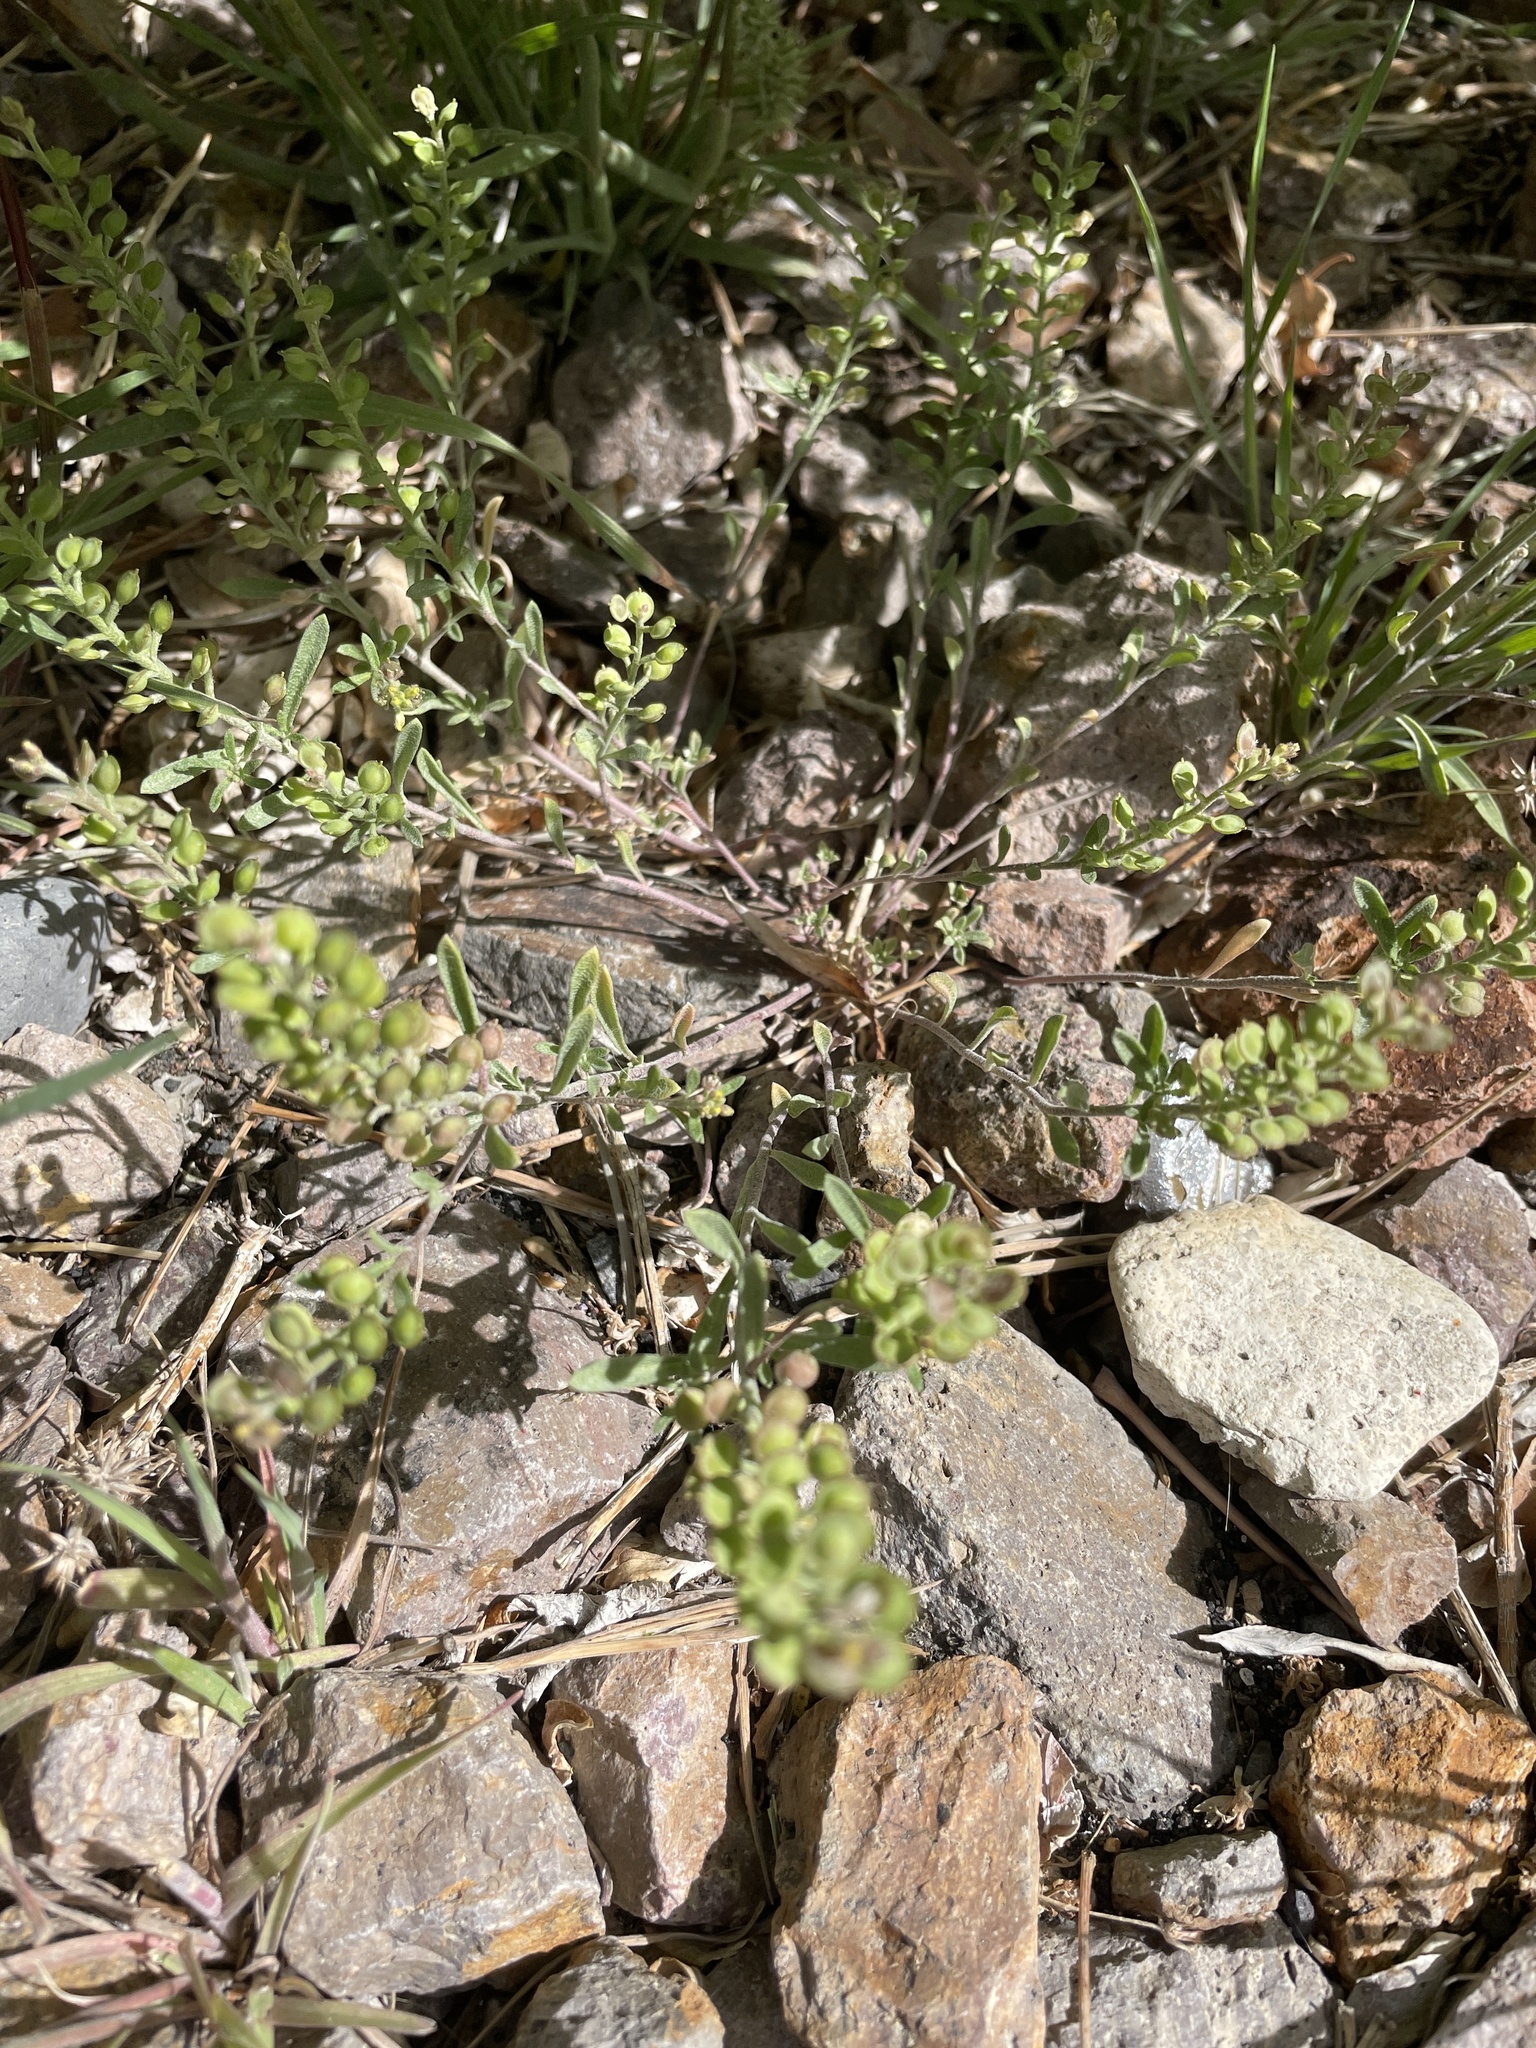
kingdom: Plantae
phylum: Tracheophyta
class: Magnoliopsida
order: Brassicales
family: Brassicaceae
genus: Alyssum
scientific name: Alyssum turkestanicum
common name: Desert alyssum
